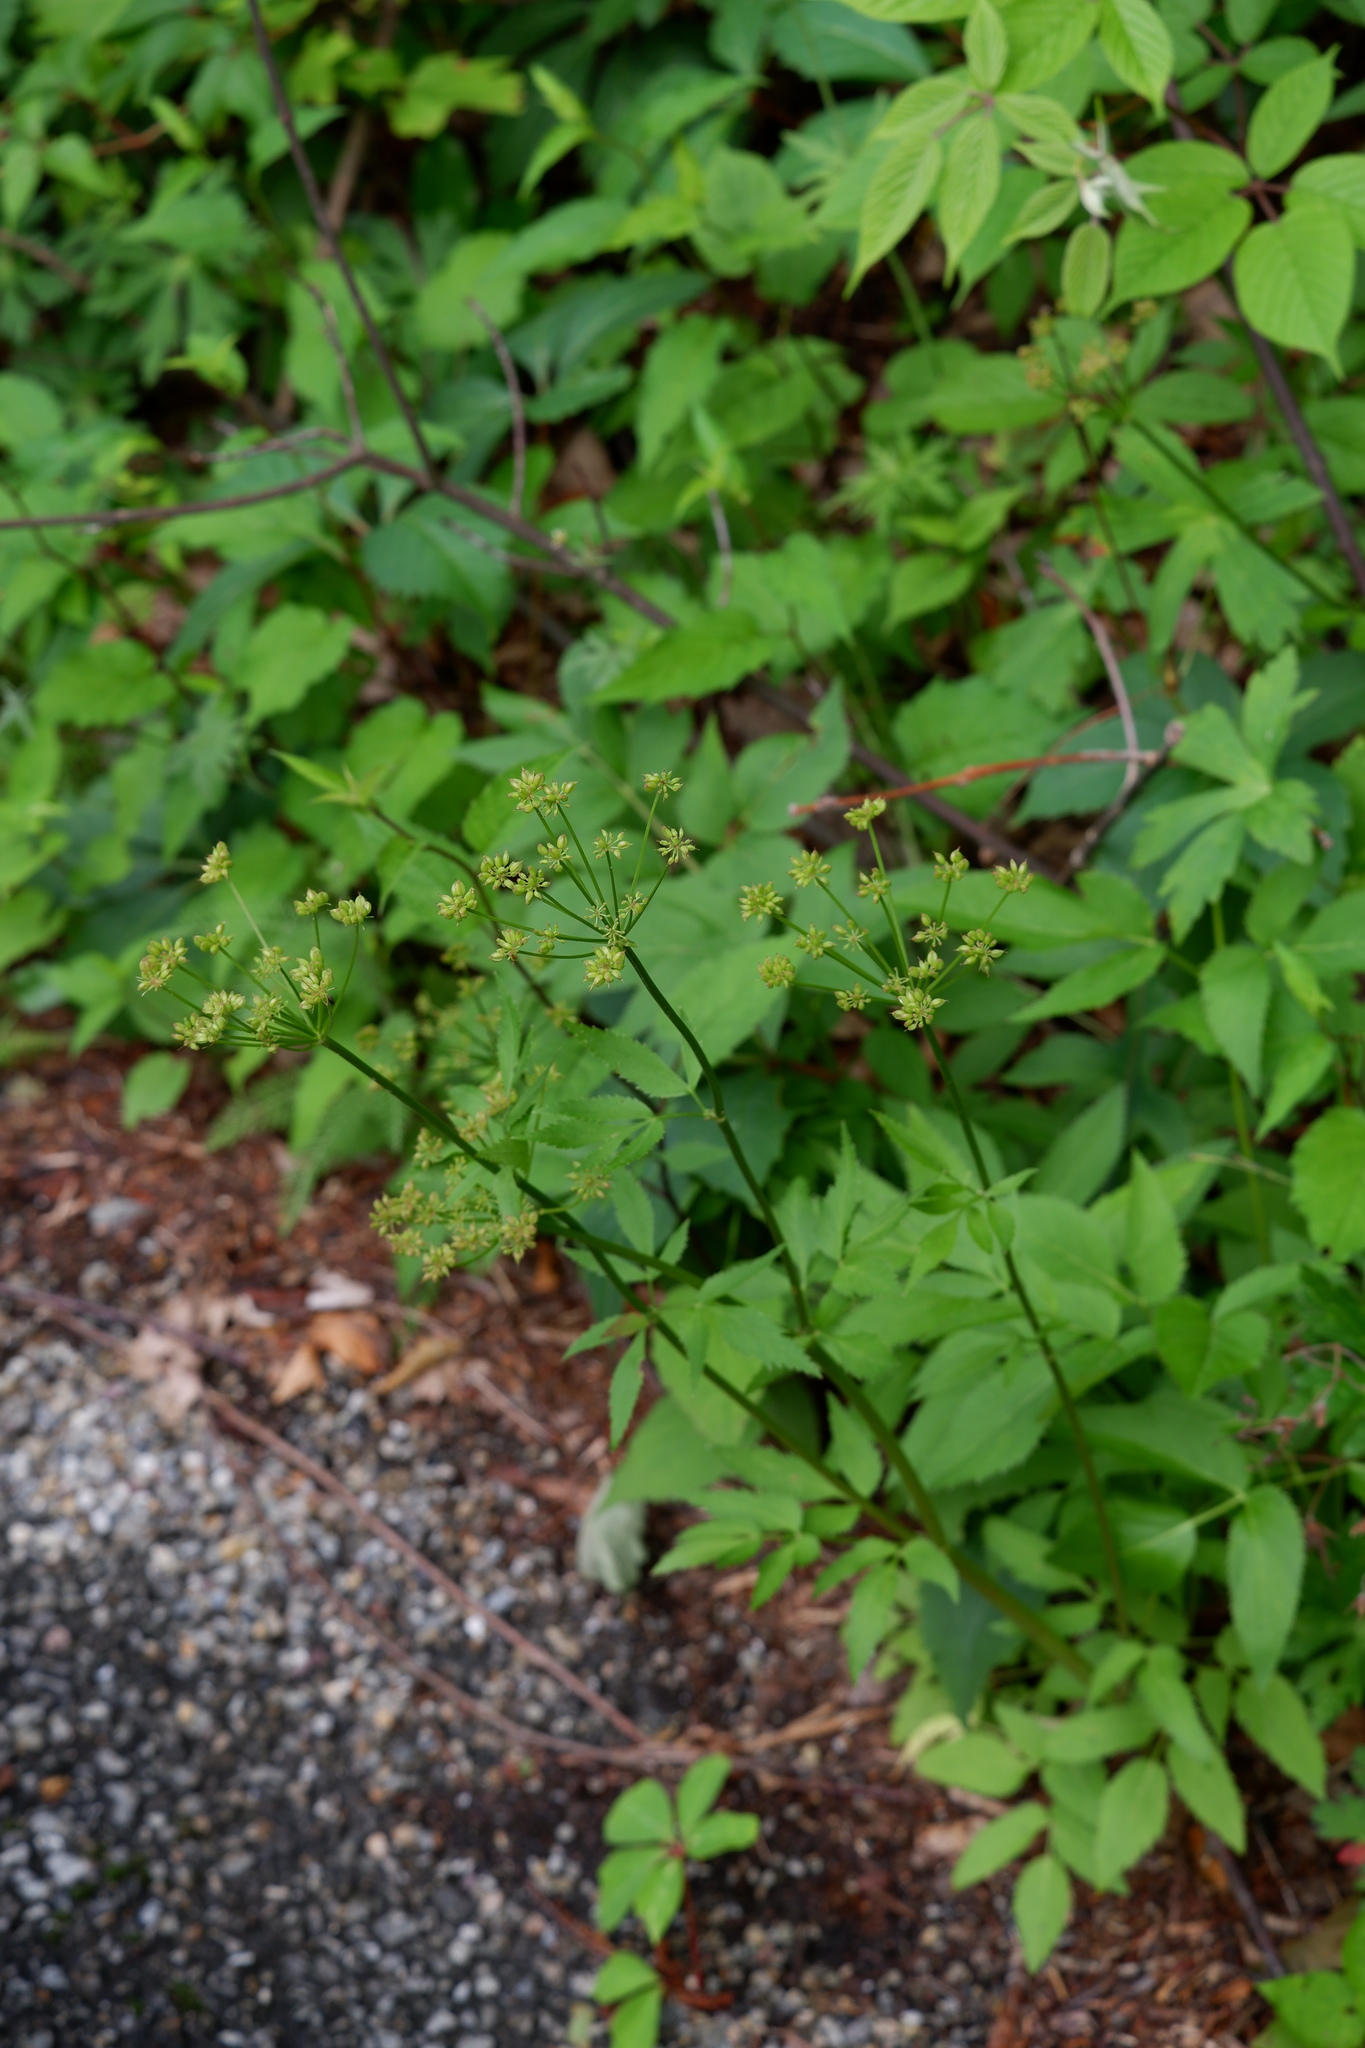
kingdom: Plantae
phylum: Tracheophyta
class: Magnoliopsida
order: Apiales
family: Apiaceae
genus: Zizia
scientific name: Zizia aurea
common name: Golden alexanders
